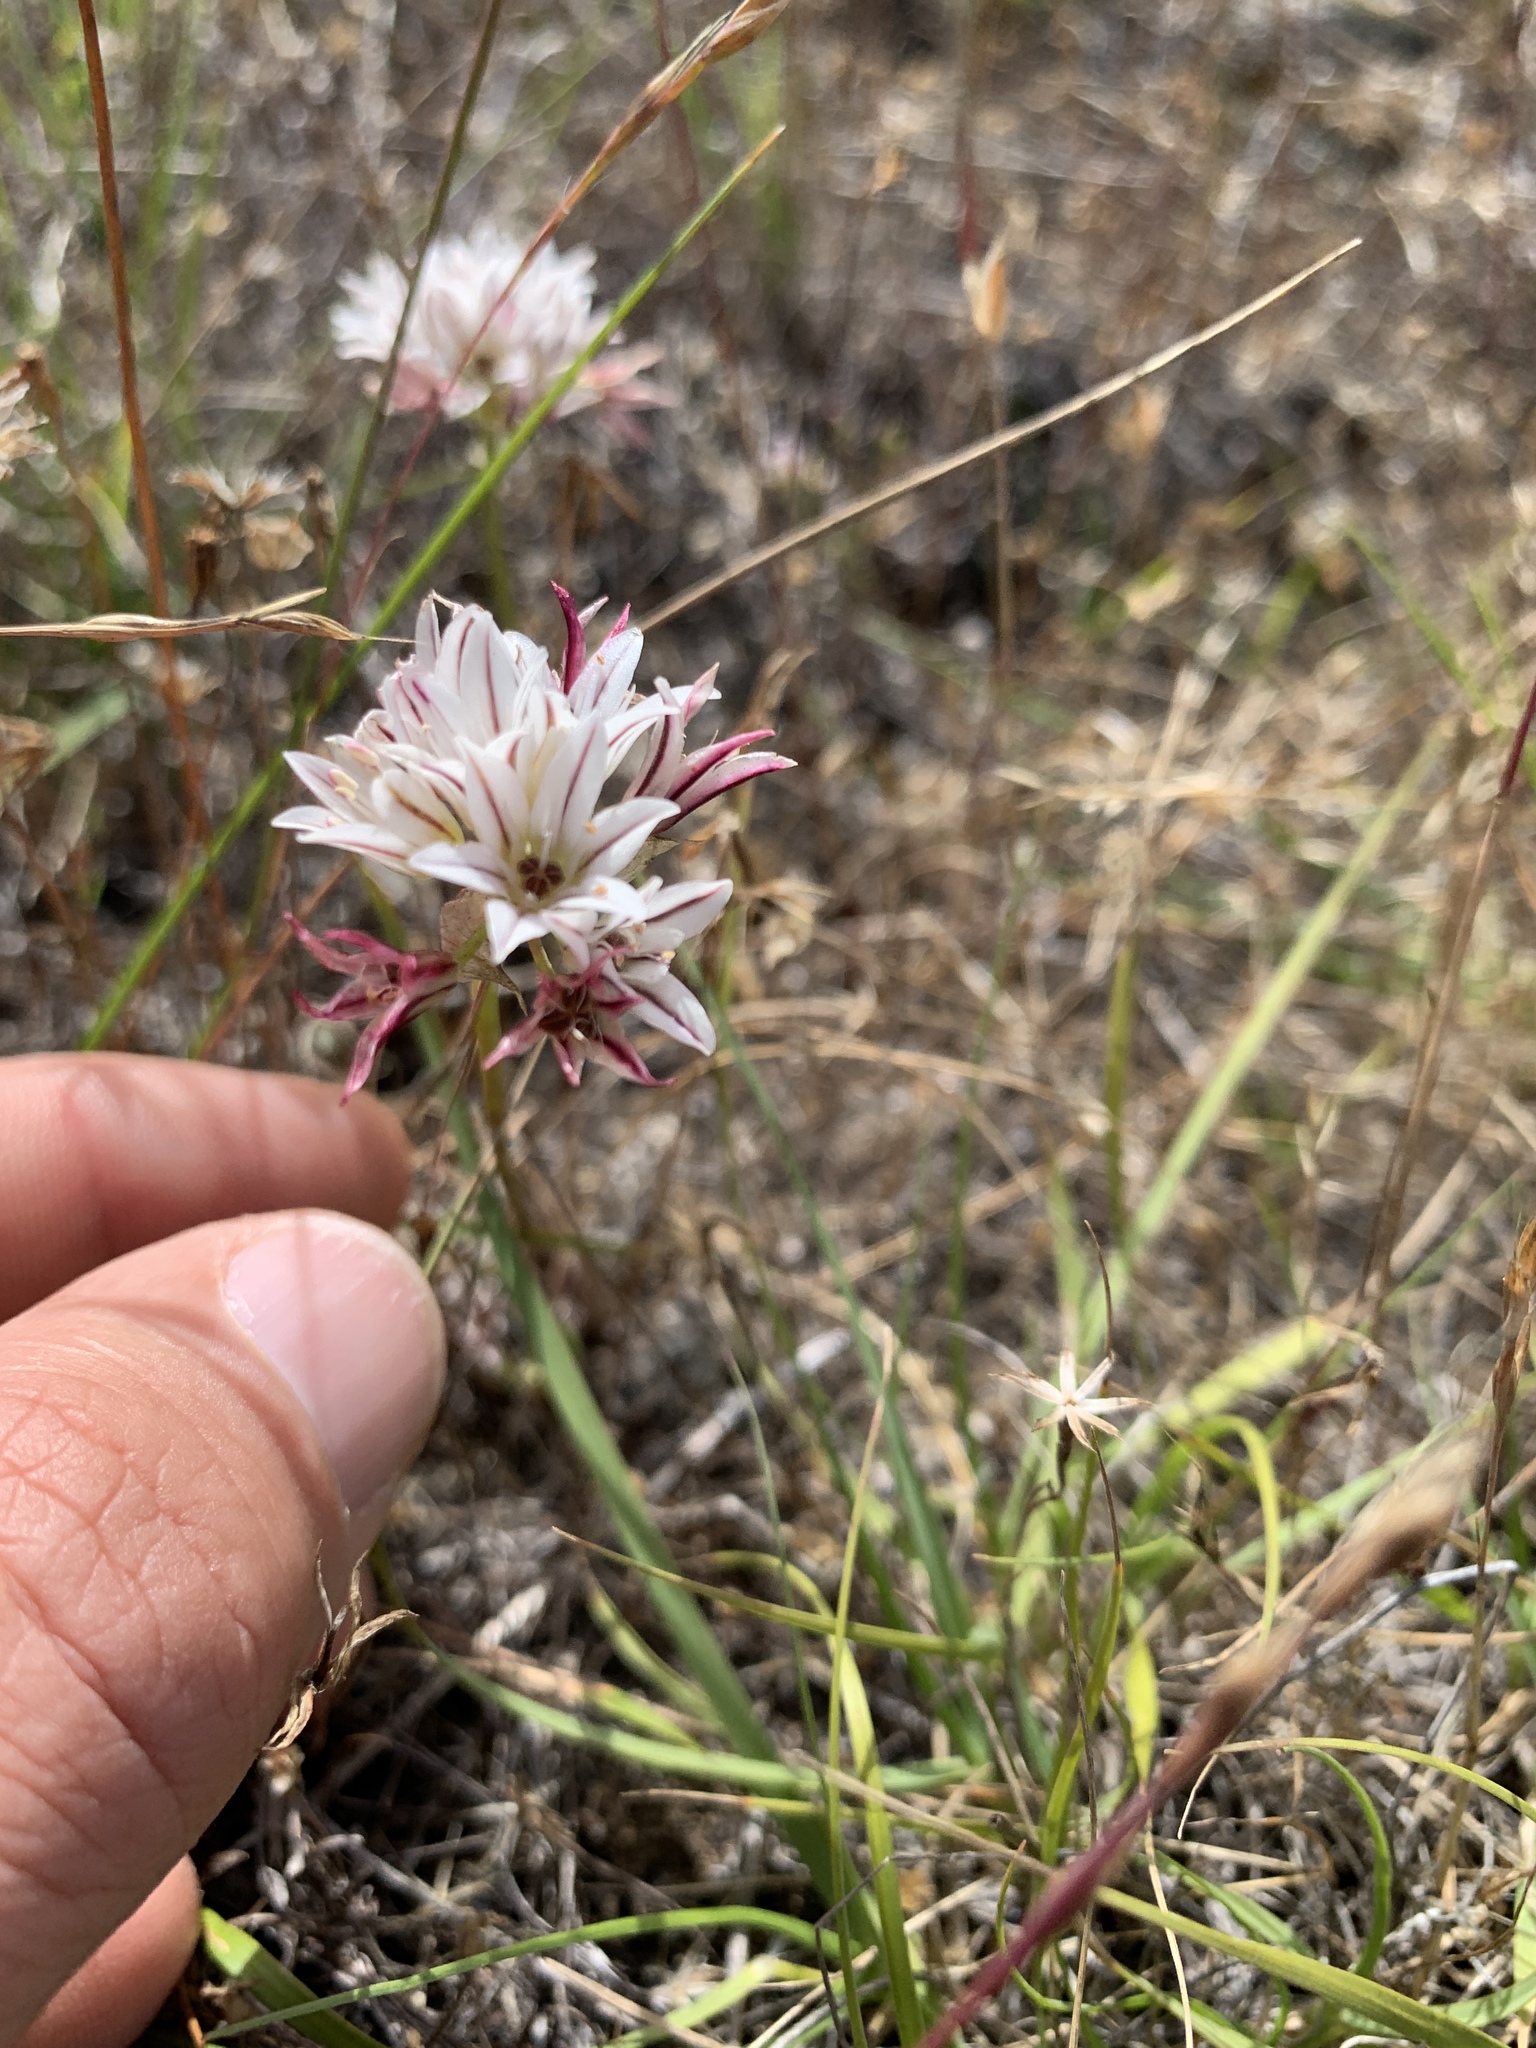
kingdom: Plantae
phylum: Tracheophyta
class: Liliopsida
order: Asparagales
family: Amaryllidaceae
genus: Allium
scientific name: Allium lacunosum
